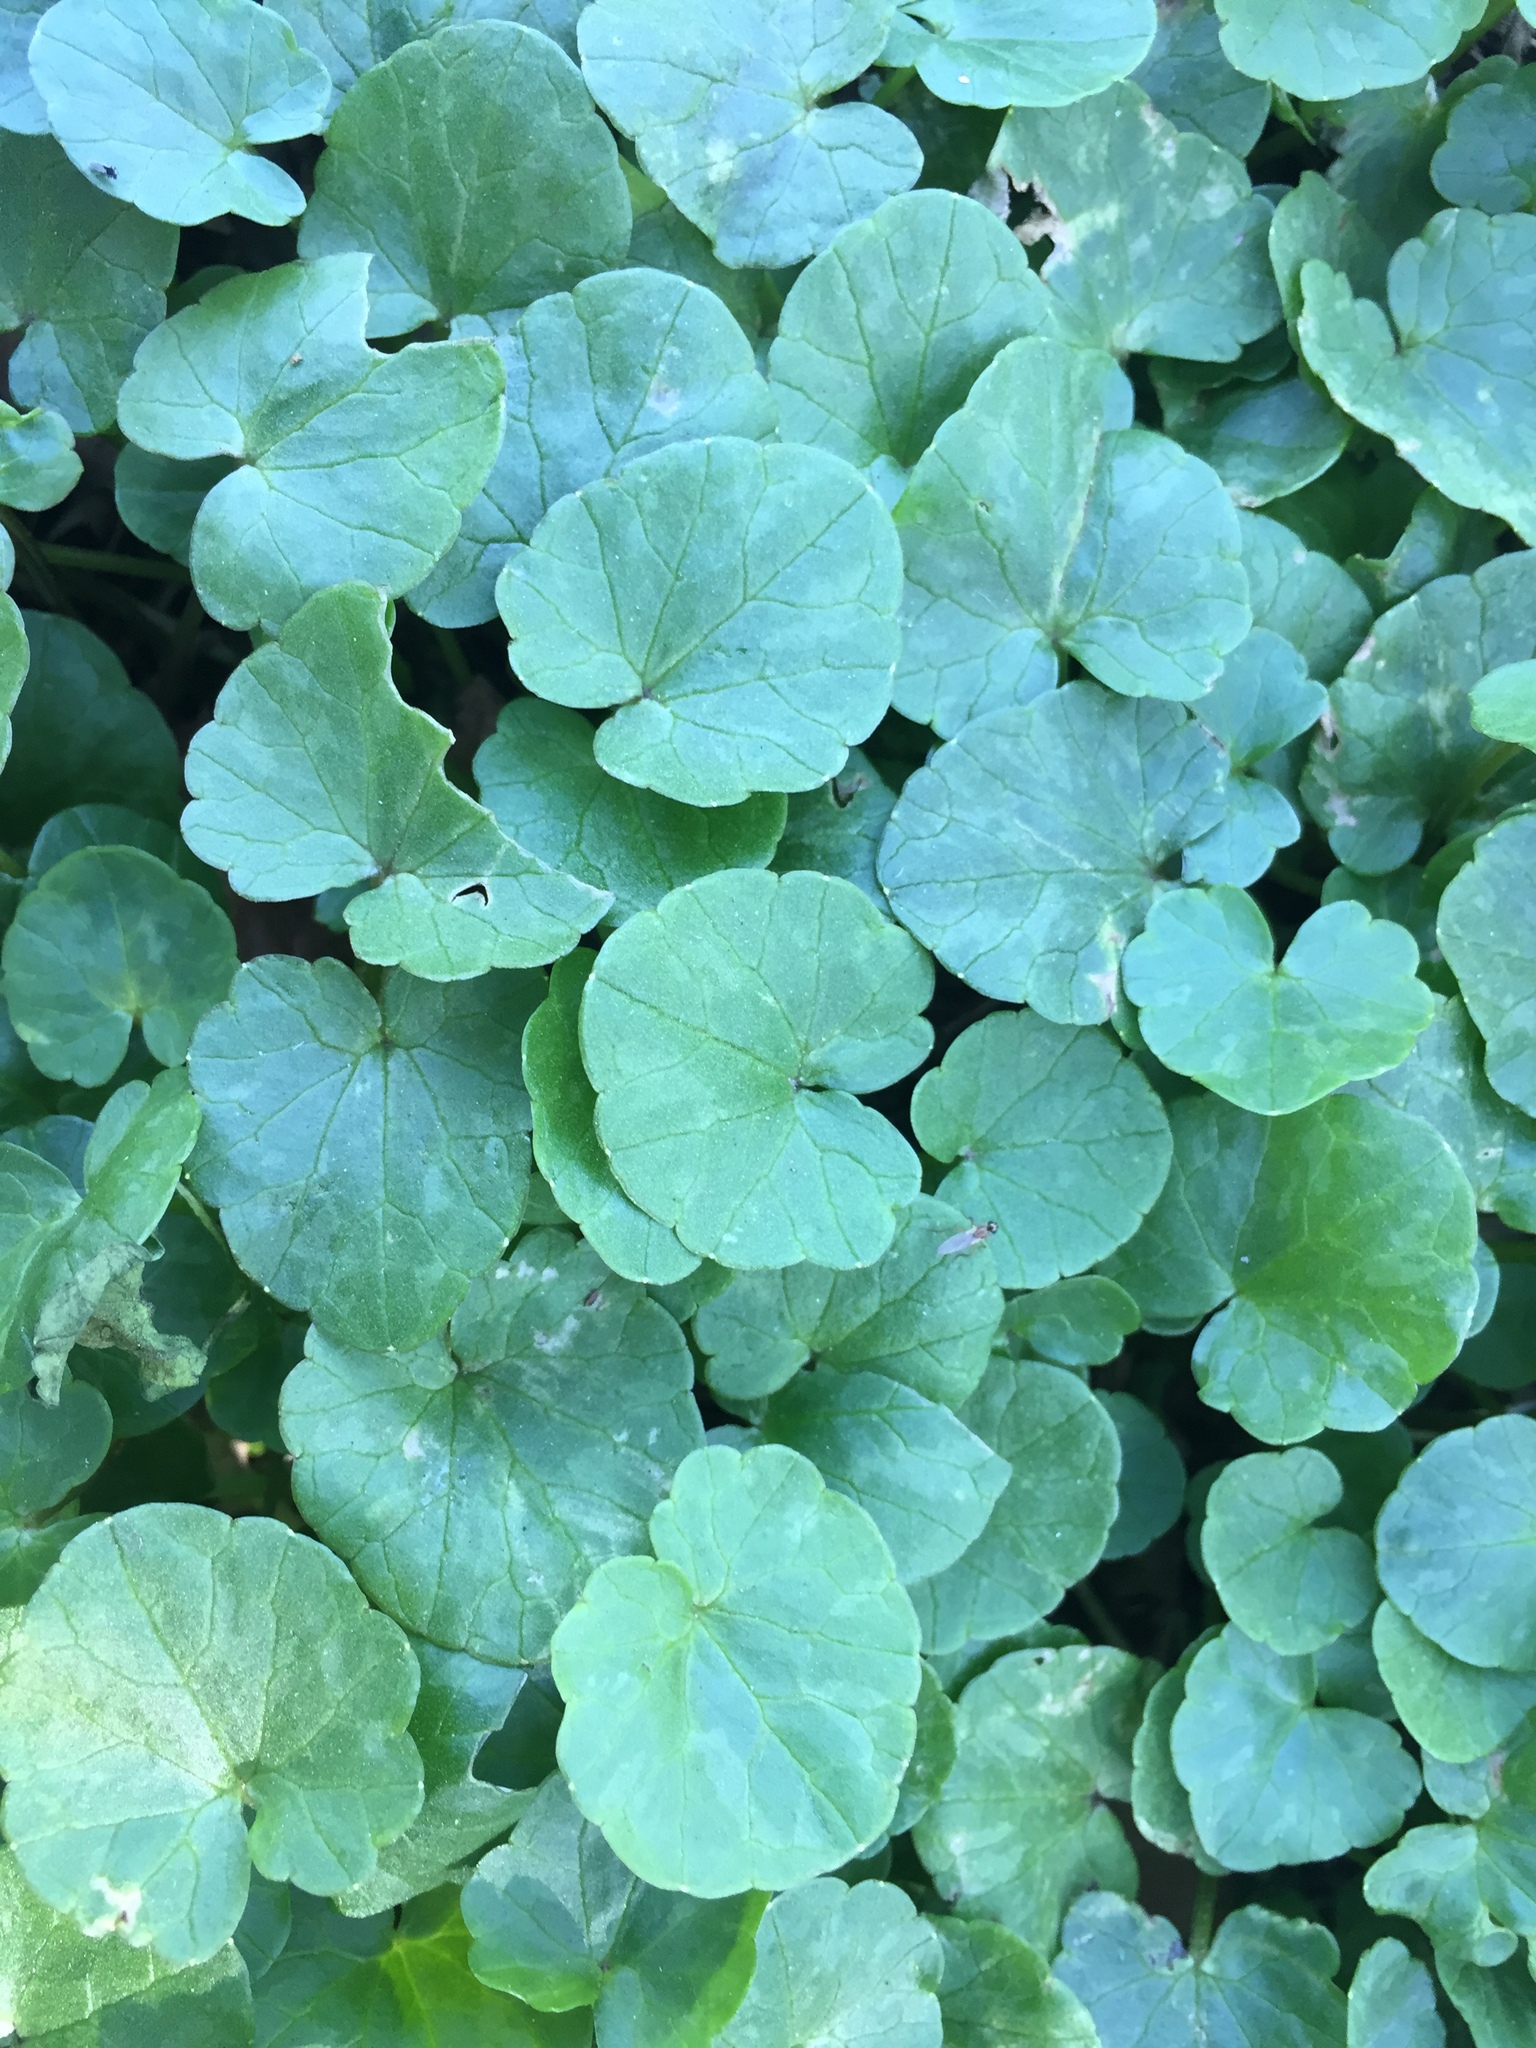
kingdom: Plantae
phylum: Tracheophyta
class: Magnoliopsida
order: Ranunculales
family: Ranunculaceae
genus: Ficaria
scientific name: Ficaria verna
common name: Lesser celandine
